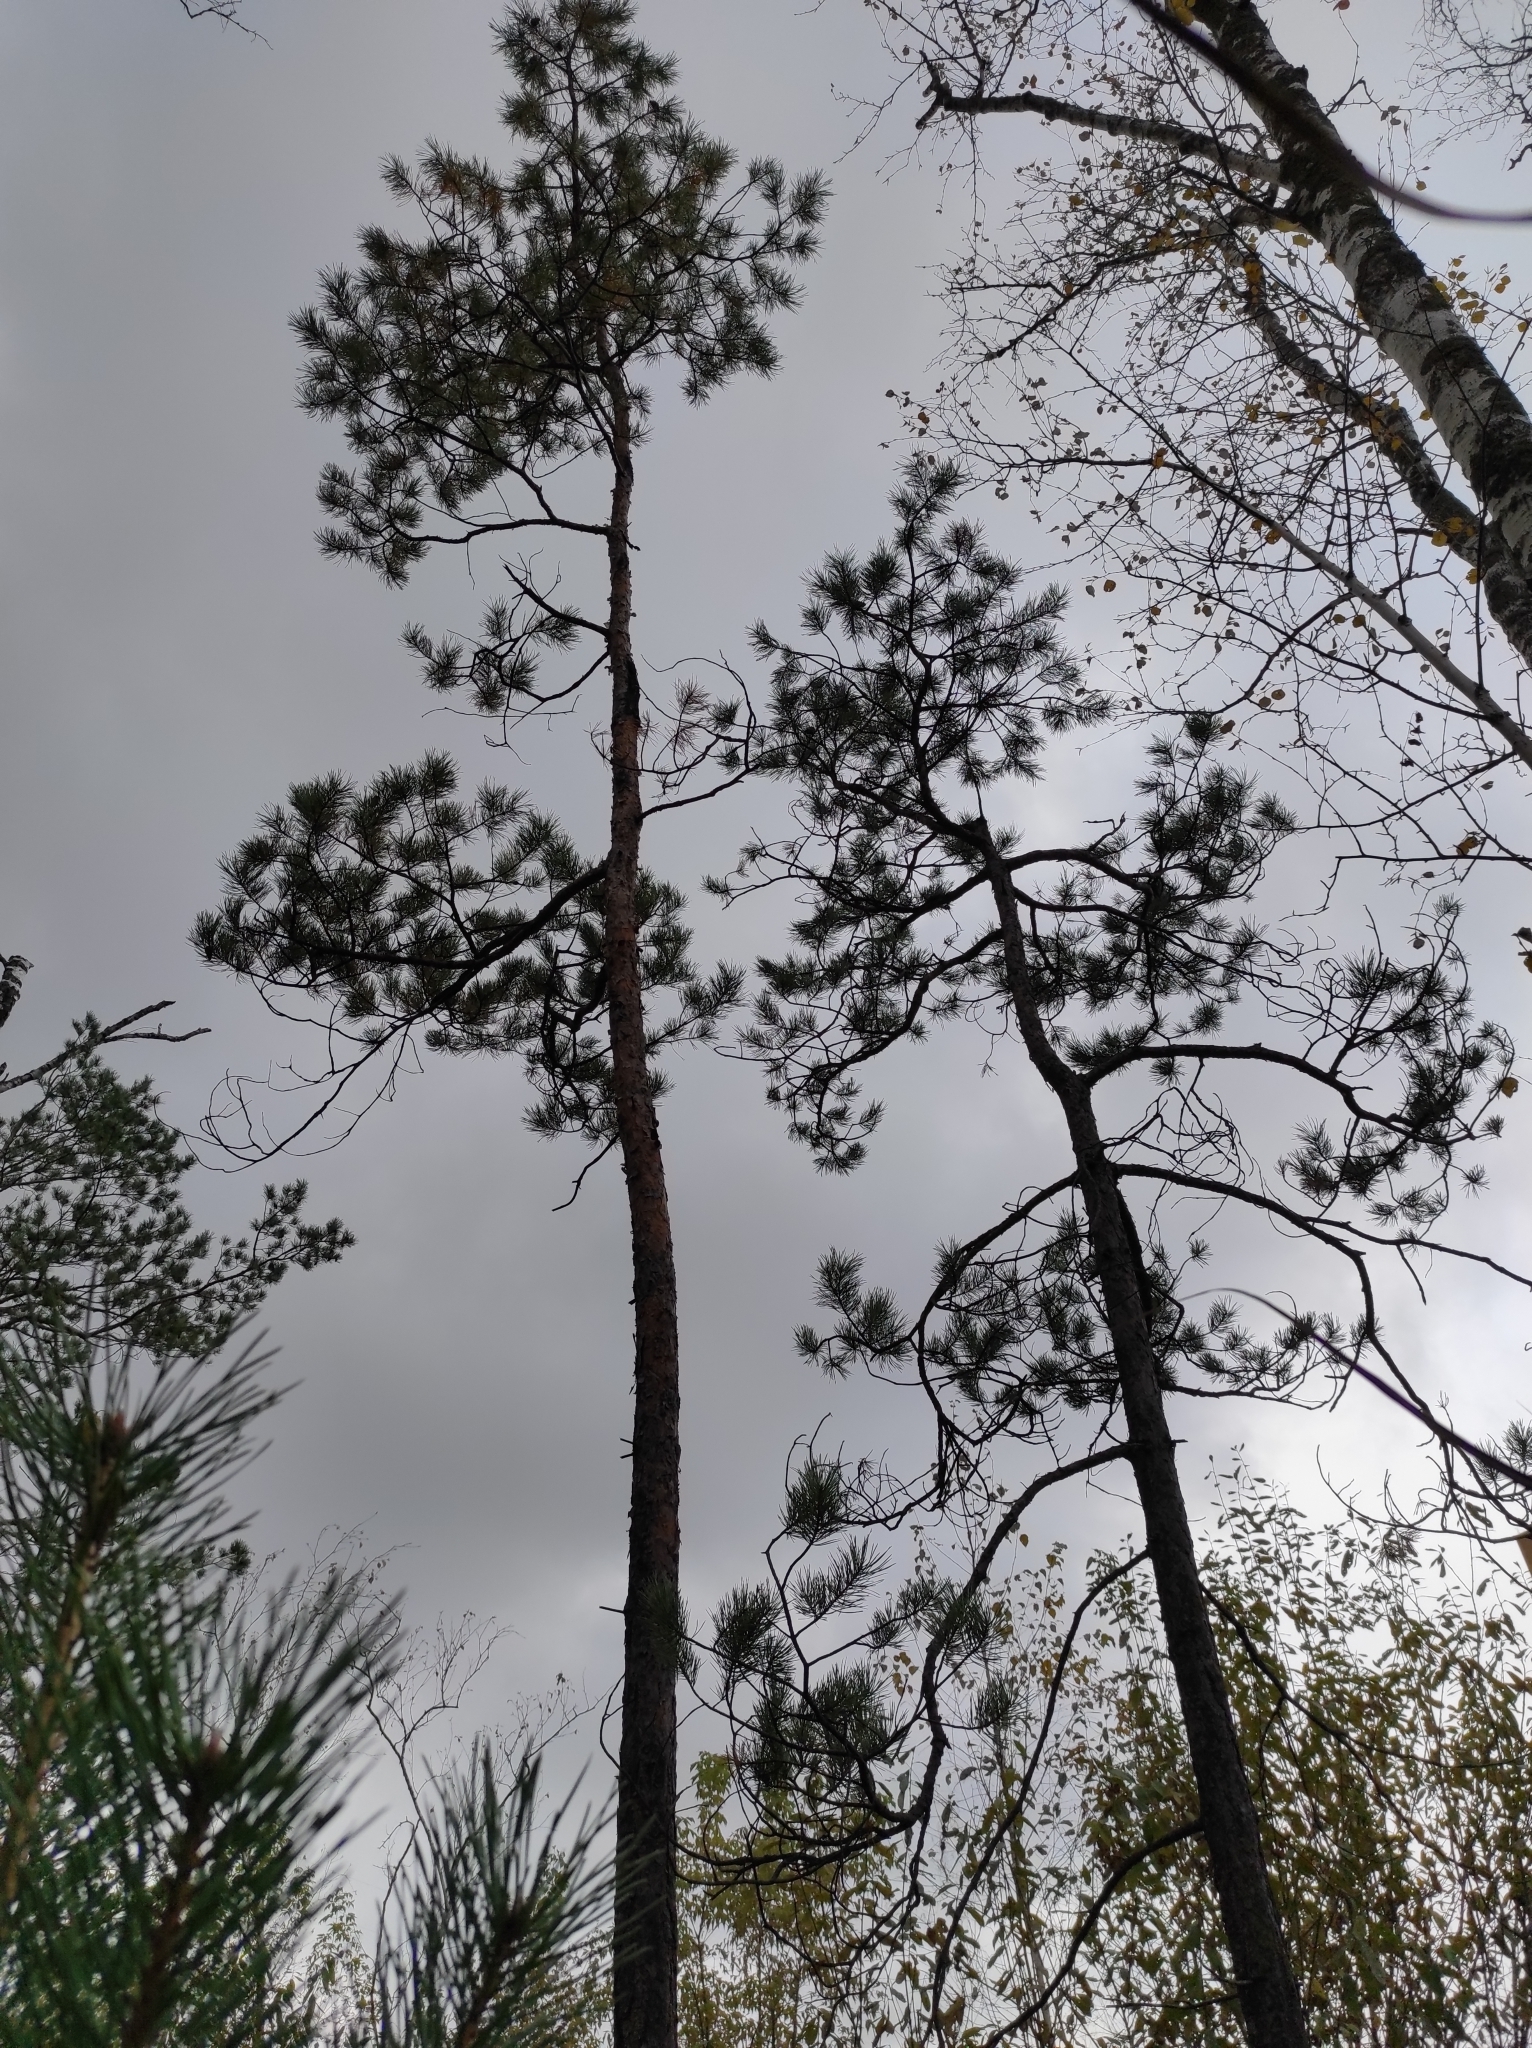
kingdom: Plantae
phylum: Tracheophyta
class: Pinopsida
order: Pinales
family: Pinaceae
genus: Pinus
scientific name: Pinus sylvestris
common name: Scots pine
